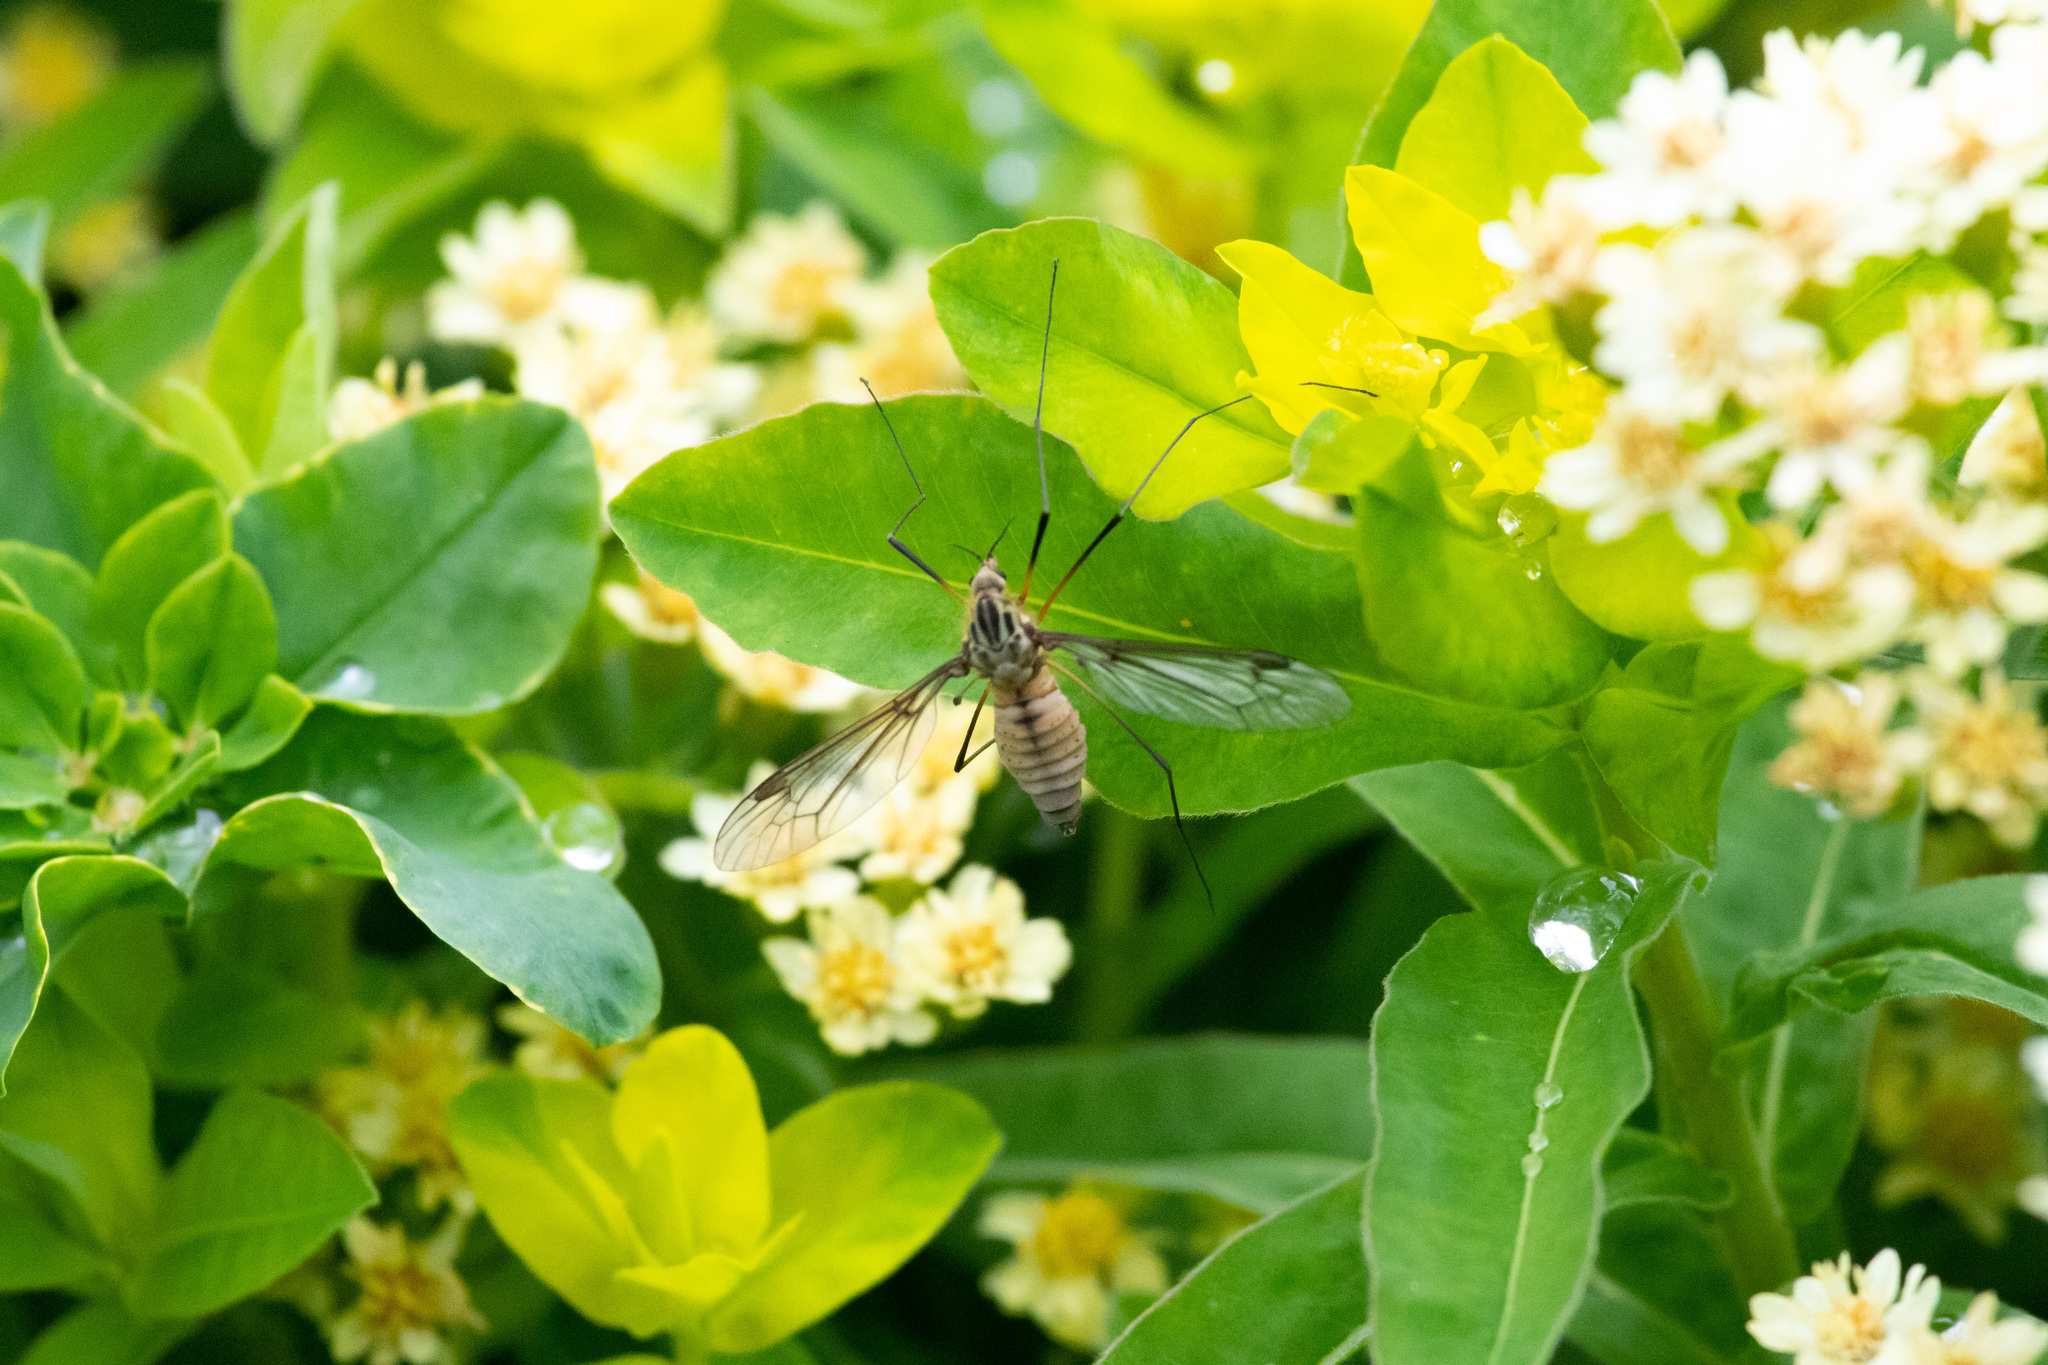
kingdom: Animalia
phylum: Arthropoda
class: Insecta
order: Diptera
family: Tipulidae
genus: Leptotarsus
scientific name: Leptotarsus vulpinus
